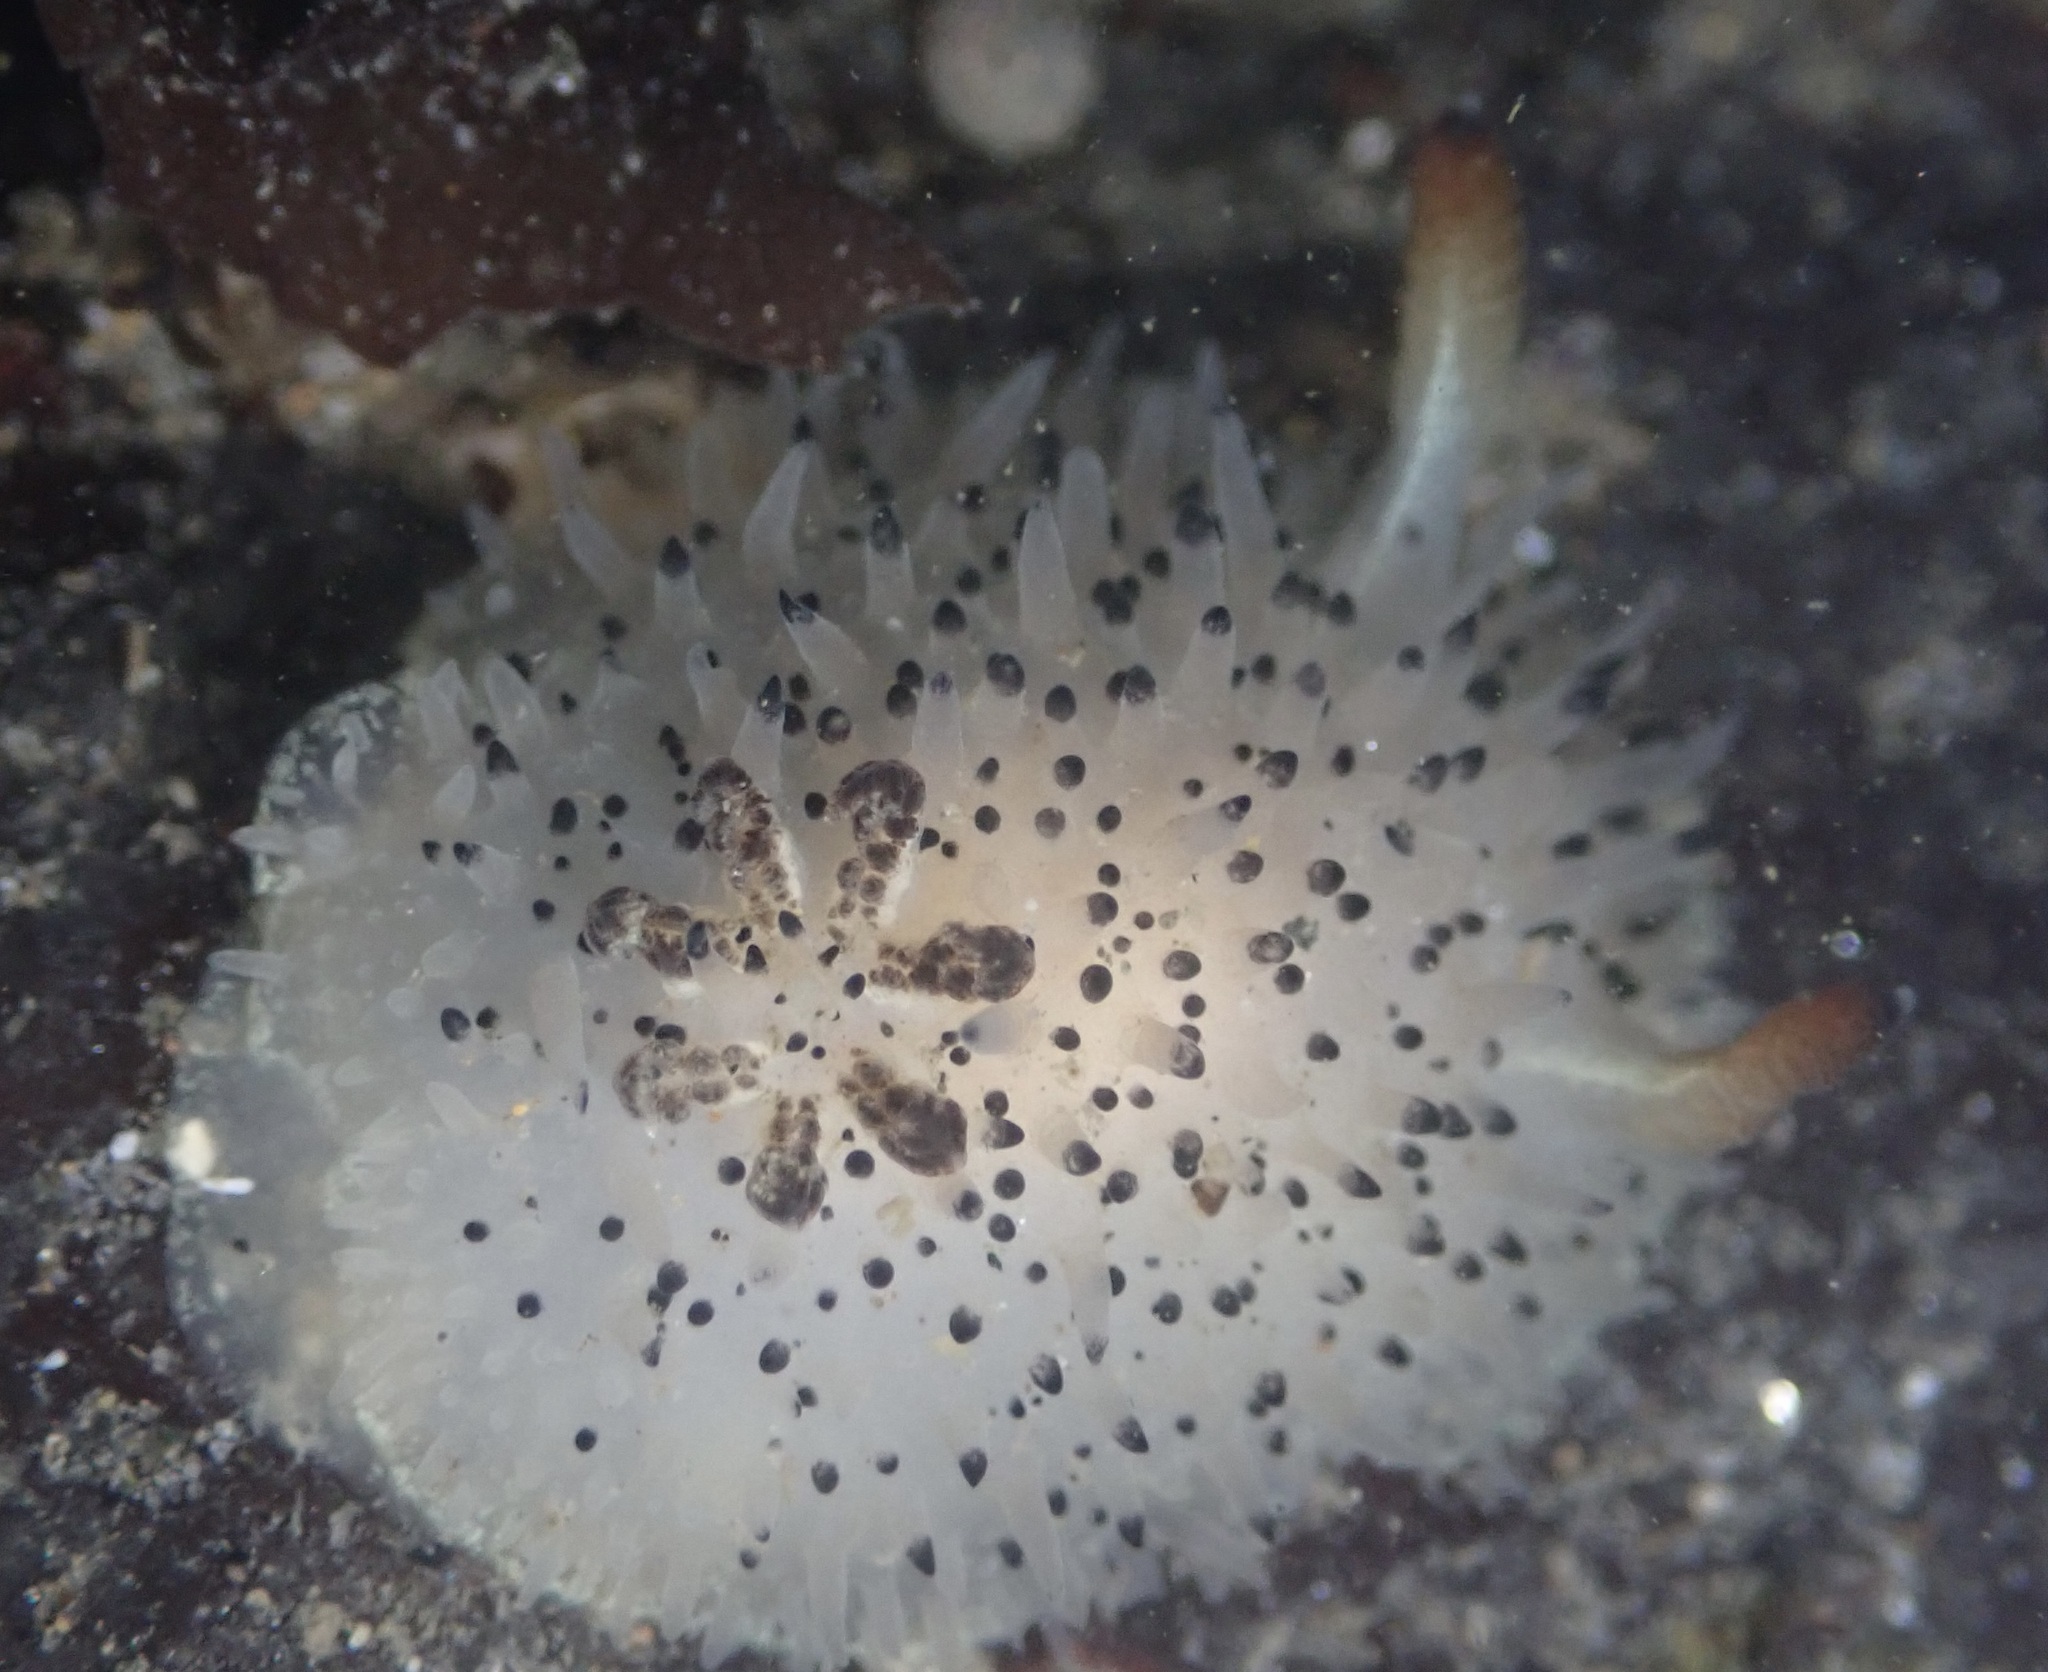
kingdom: Animalia
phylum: Mollusca
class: Gastropoda
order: Nudibranchia
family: Onchidorididae
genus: Acanthodoris
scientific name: Acanthodoris rhodoceras
